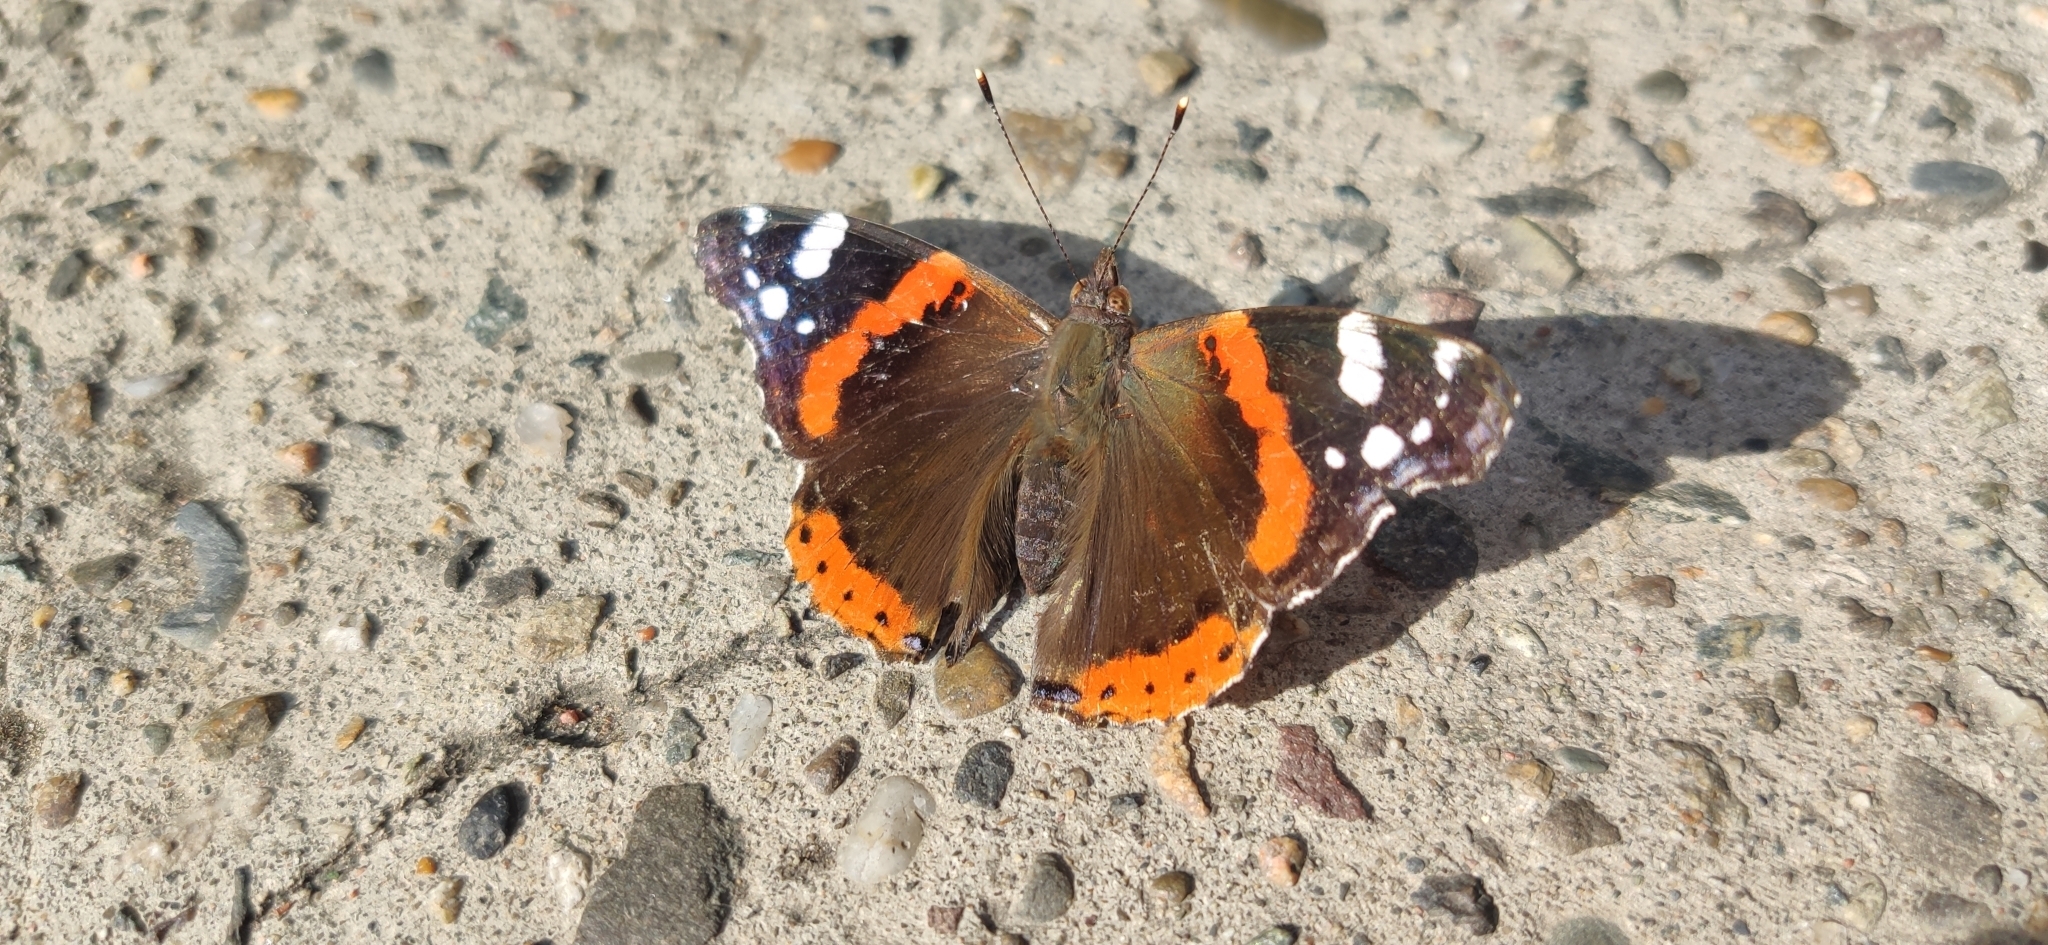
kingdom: Animalia
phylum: Arthropoda
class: Insecta
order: Lepidoptera
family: Nymphalidae
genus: Vanessa
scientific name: Vanessa atalanta
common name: Red admiral
